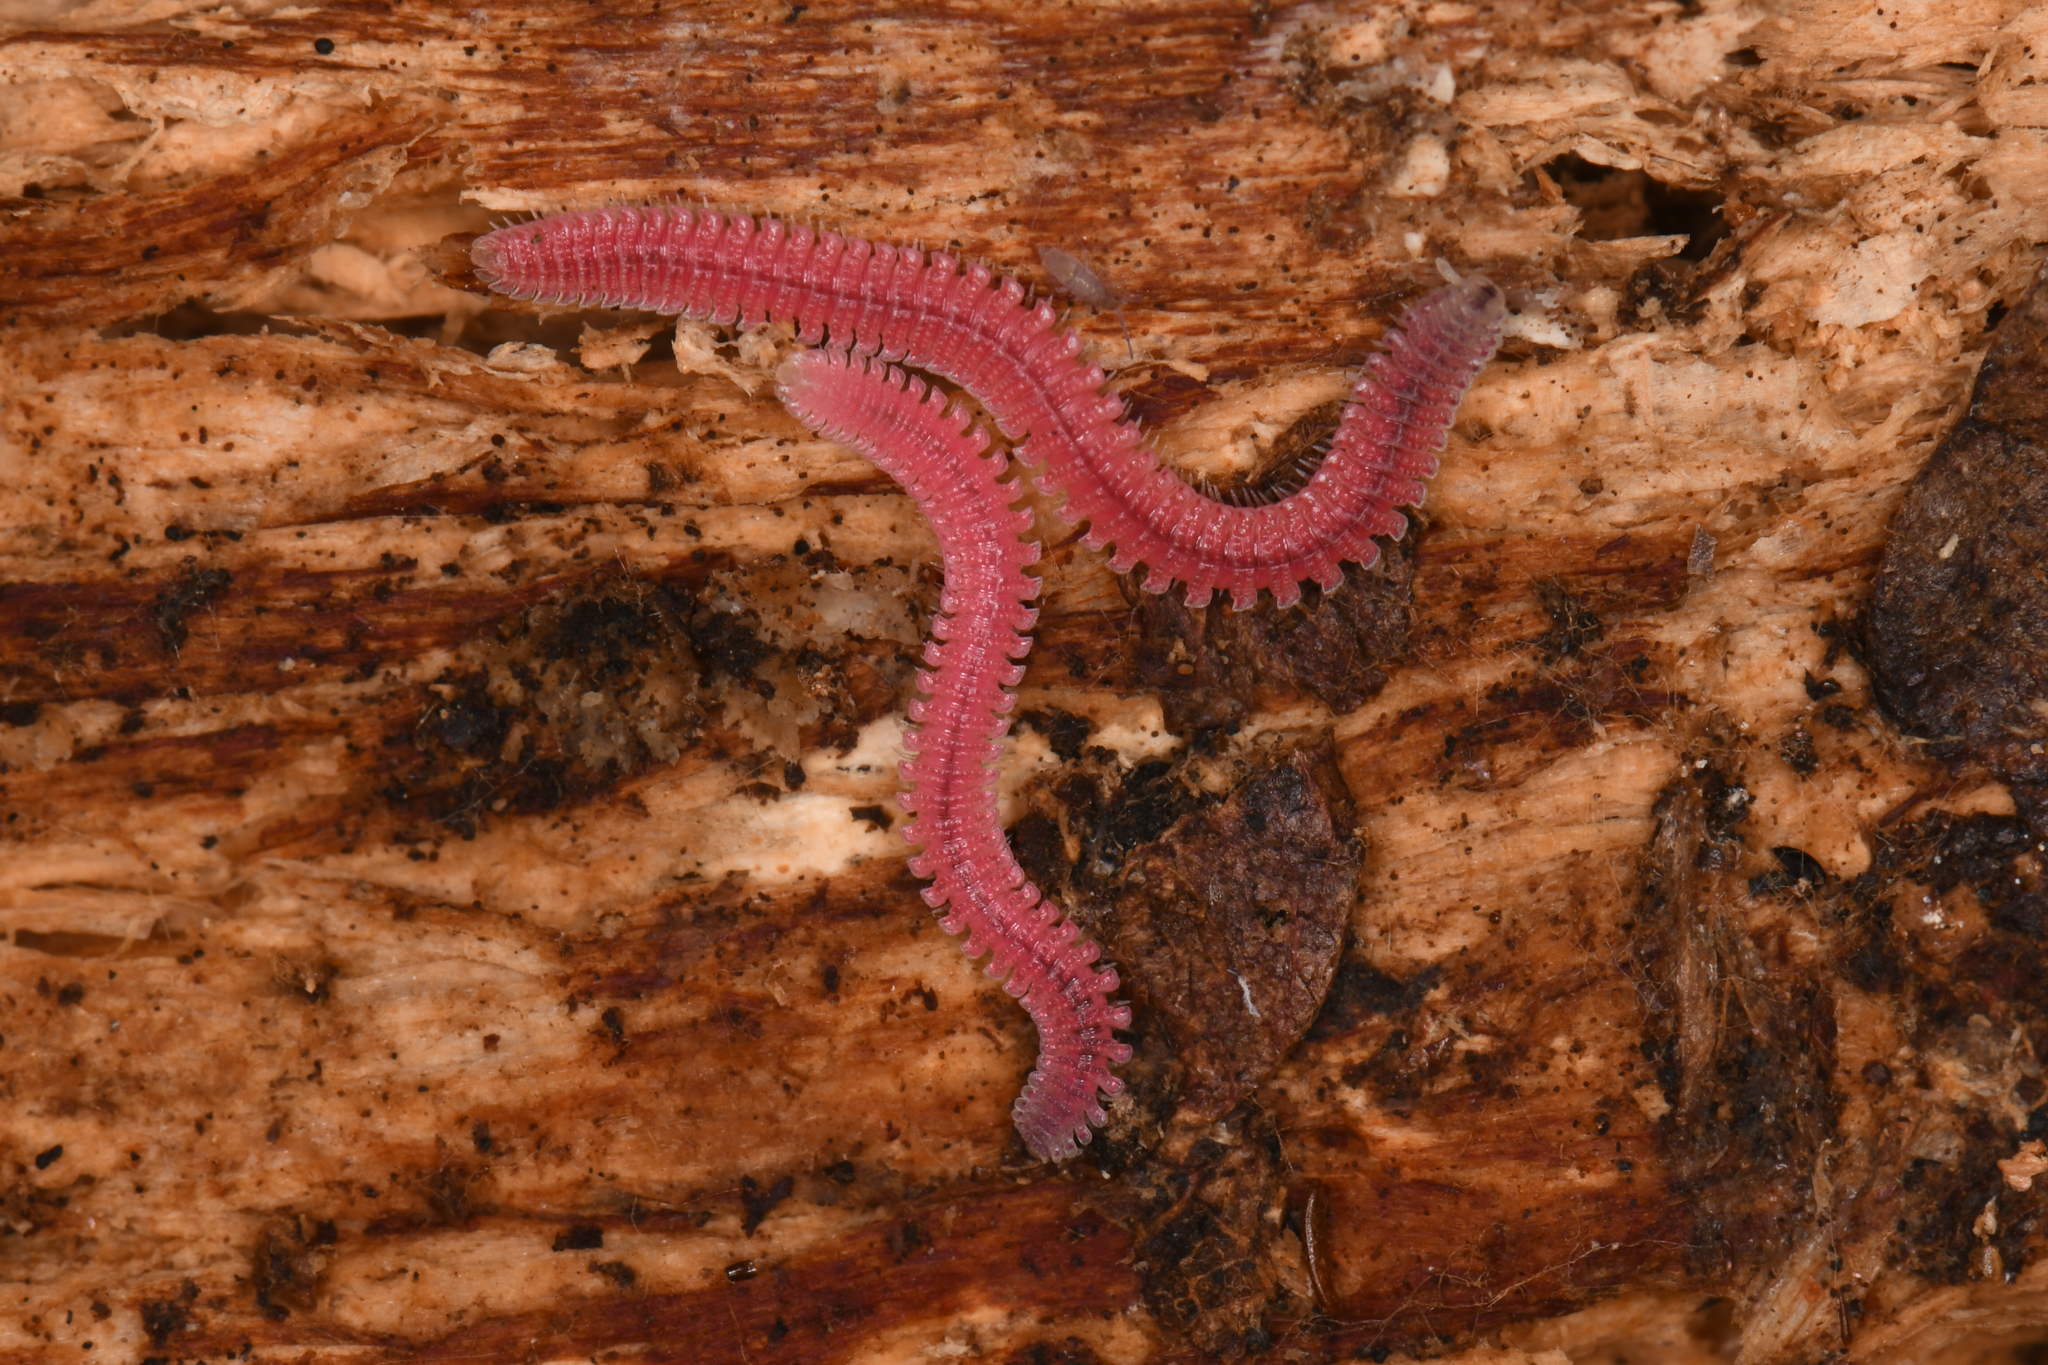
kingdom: Animalia
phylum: Arthropoda
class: Diplopoda
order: Platydesmida
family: Andrognathidae
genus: Gosodesmus
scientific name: Gosodesmus claremontus
